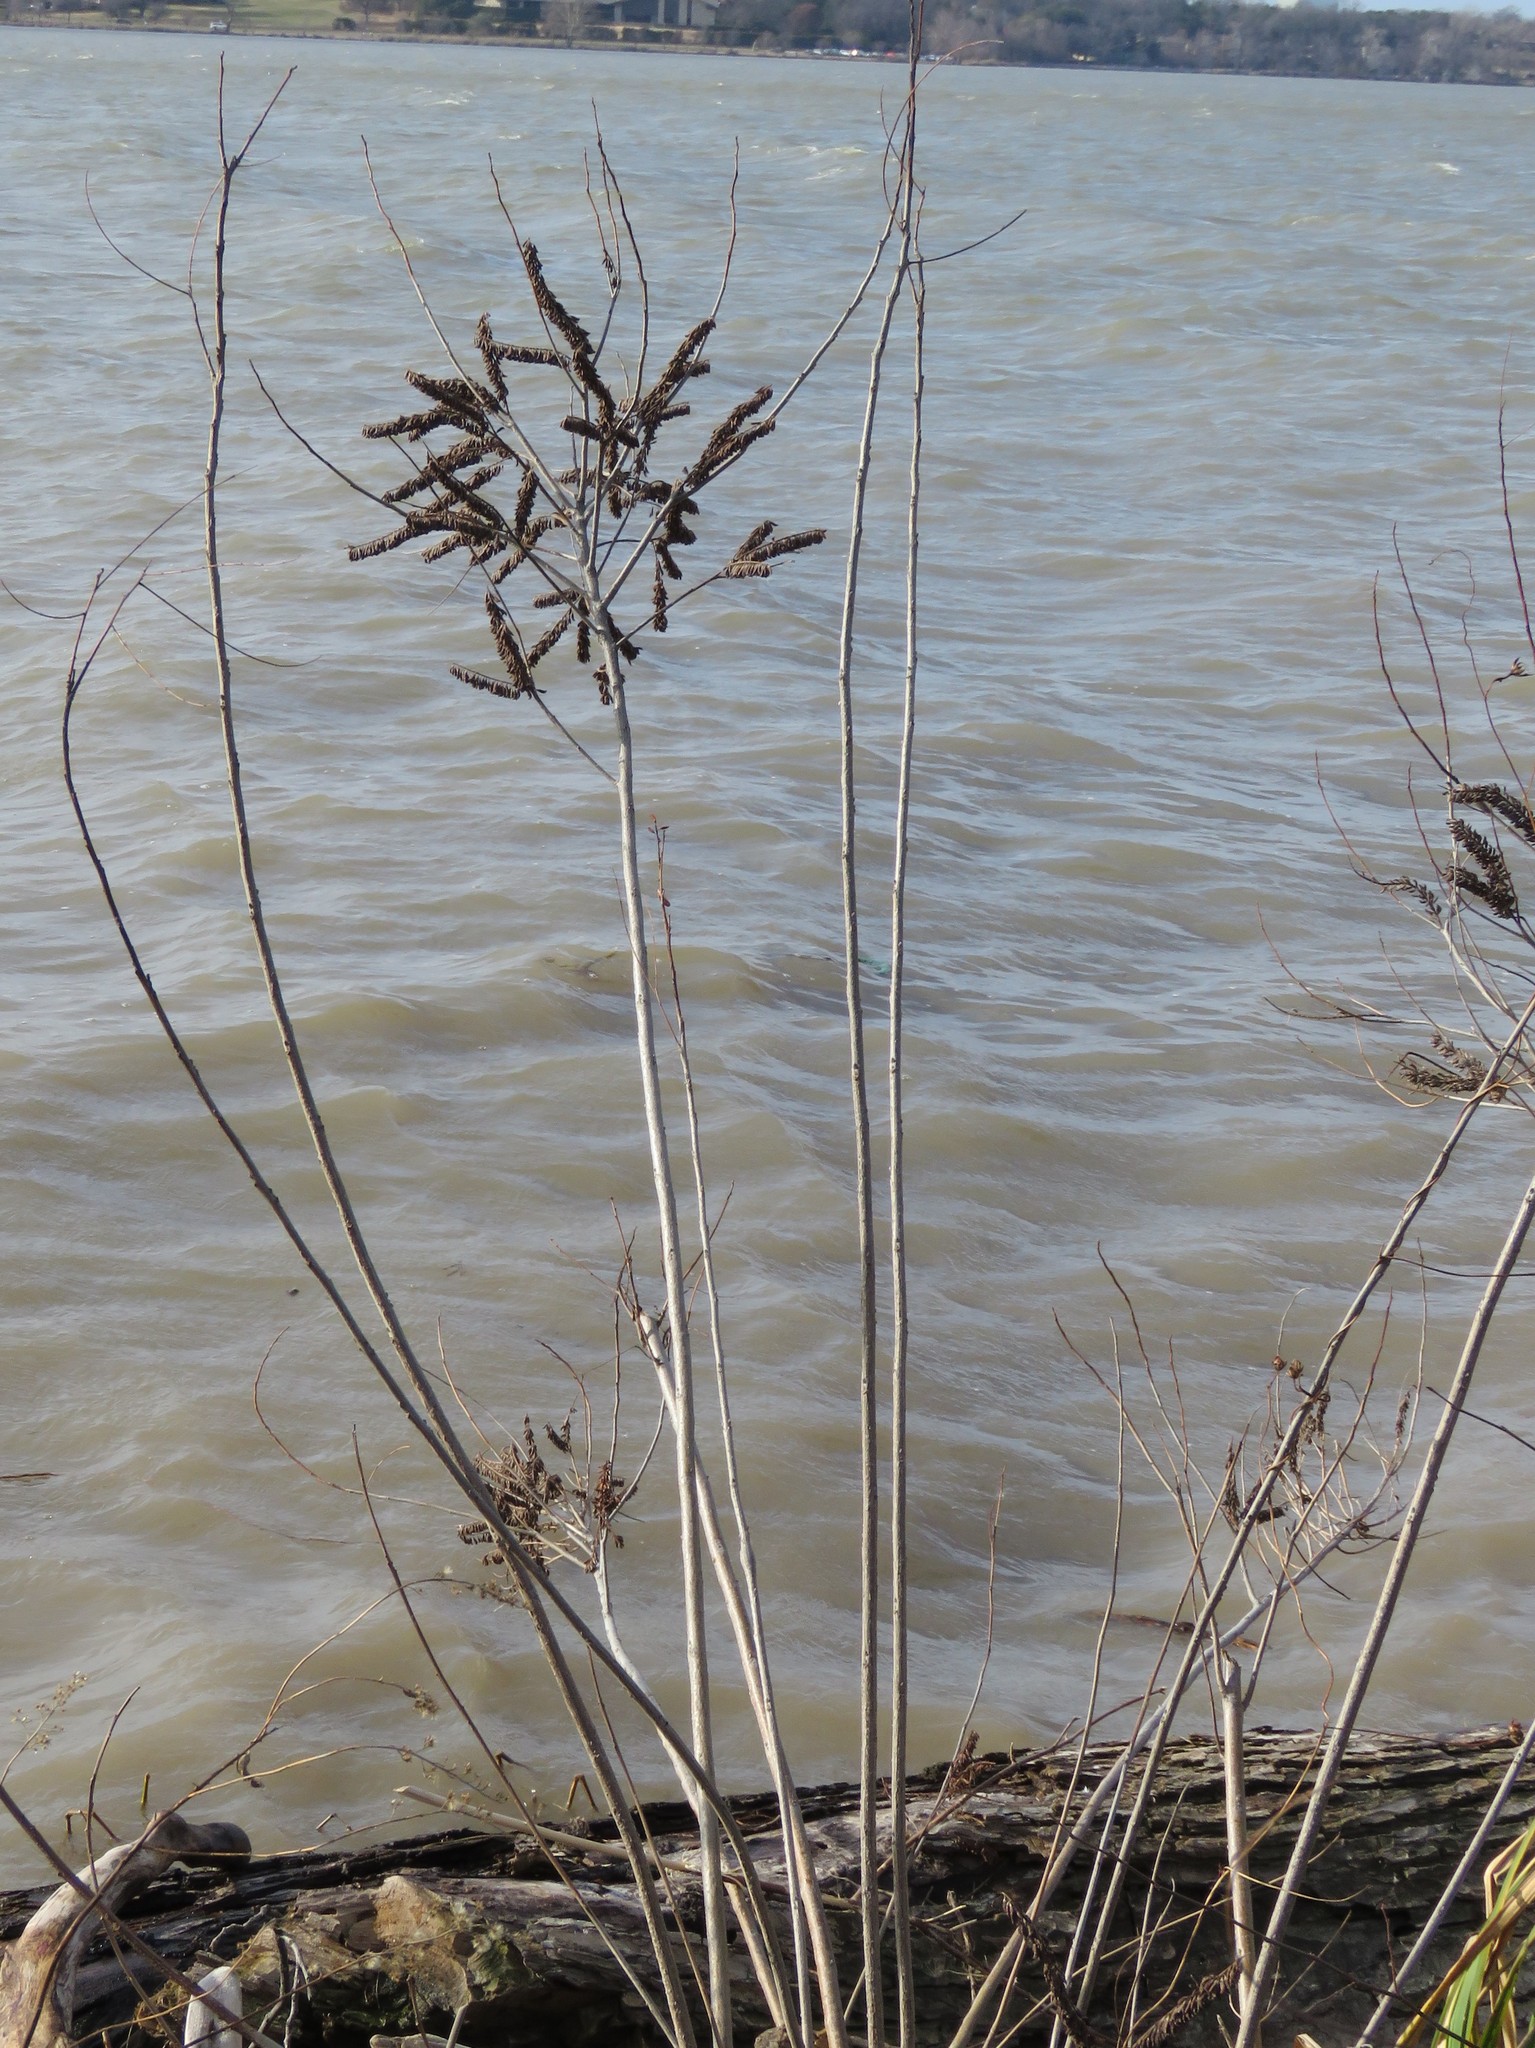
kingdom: Plantae
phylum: Tracheophyta
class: Magnoliopsida
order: Fabales
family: Fabaceae
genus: Amorpha
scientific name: Amorpha fruticosa
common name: False indigo
